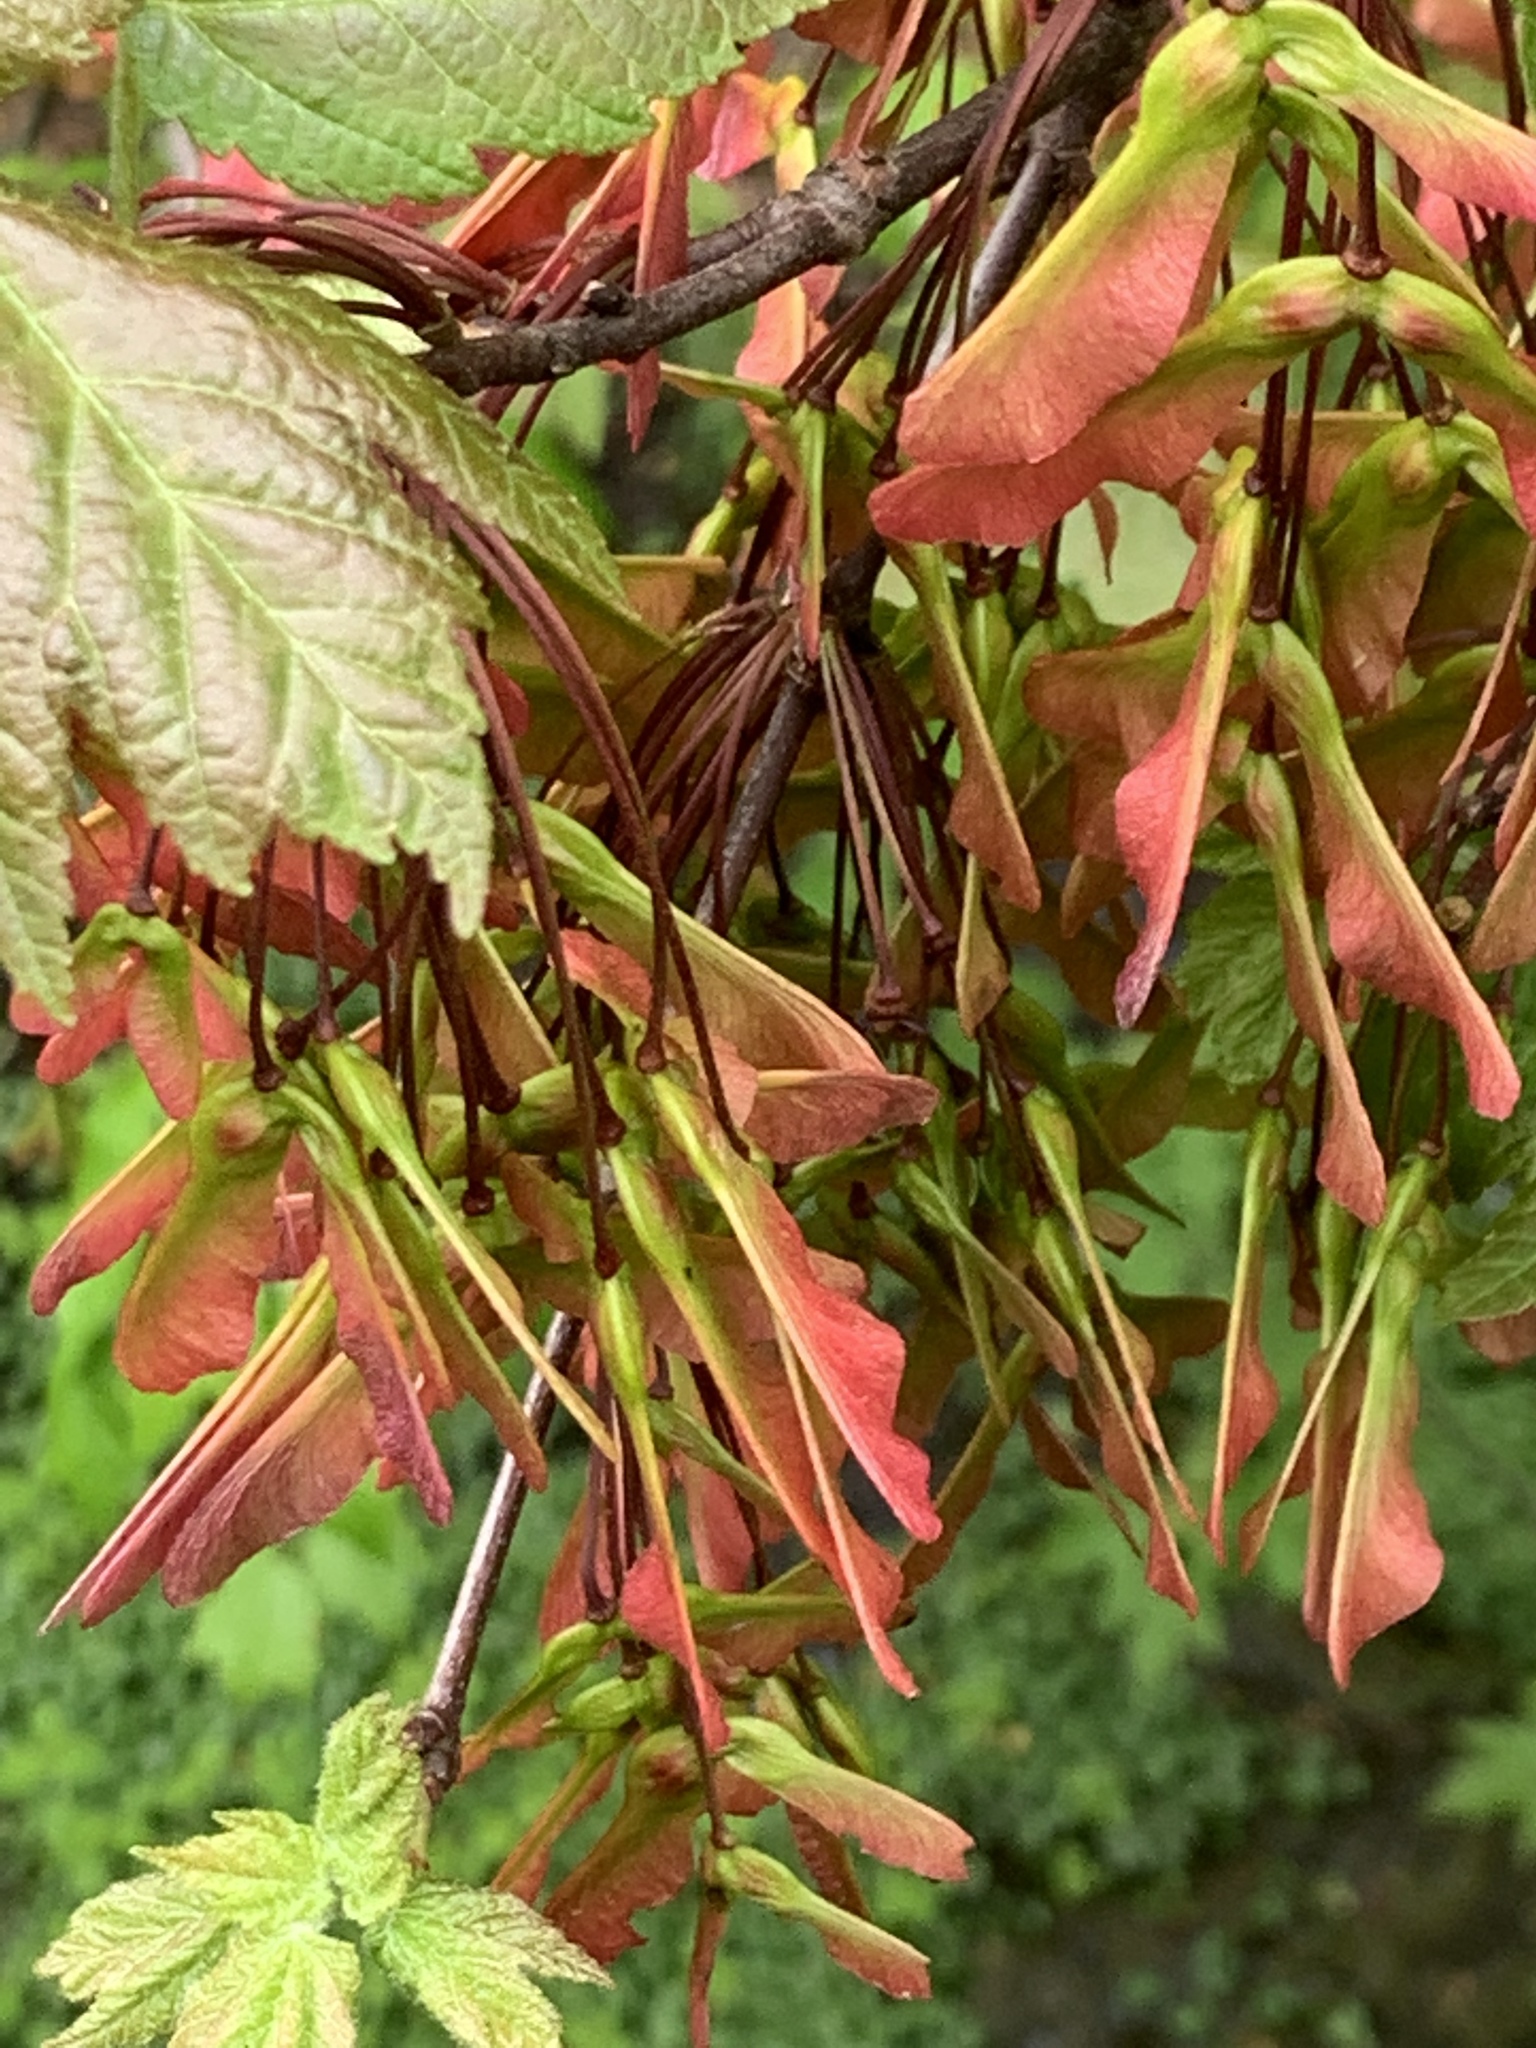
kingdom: Plantae
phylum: Tracheophyta
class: Magnoliopsida
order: Sapindales
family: Sapindaceae
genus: Acer
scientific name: Acer rubrum
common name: Red maple
